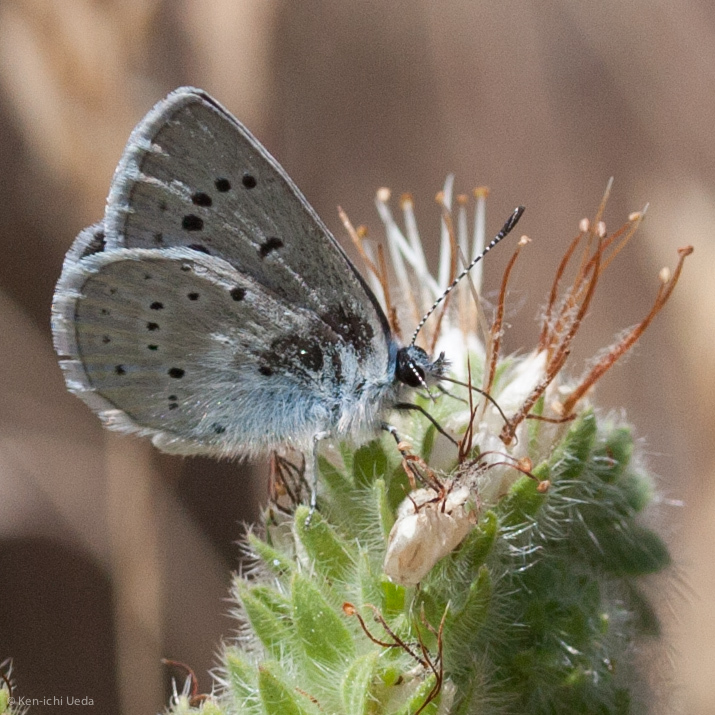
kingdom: Animalia
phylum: Arthropoda
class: Insecta
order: Lepidoptera
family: Lycaenidae
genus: Icaricia
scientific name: Icaricia icarioides
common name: Boisduval's blue
